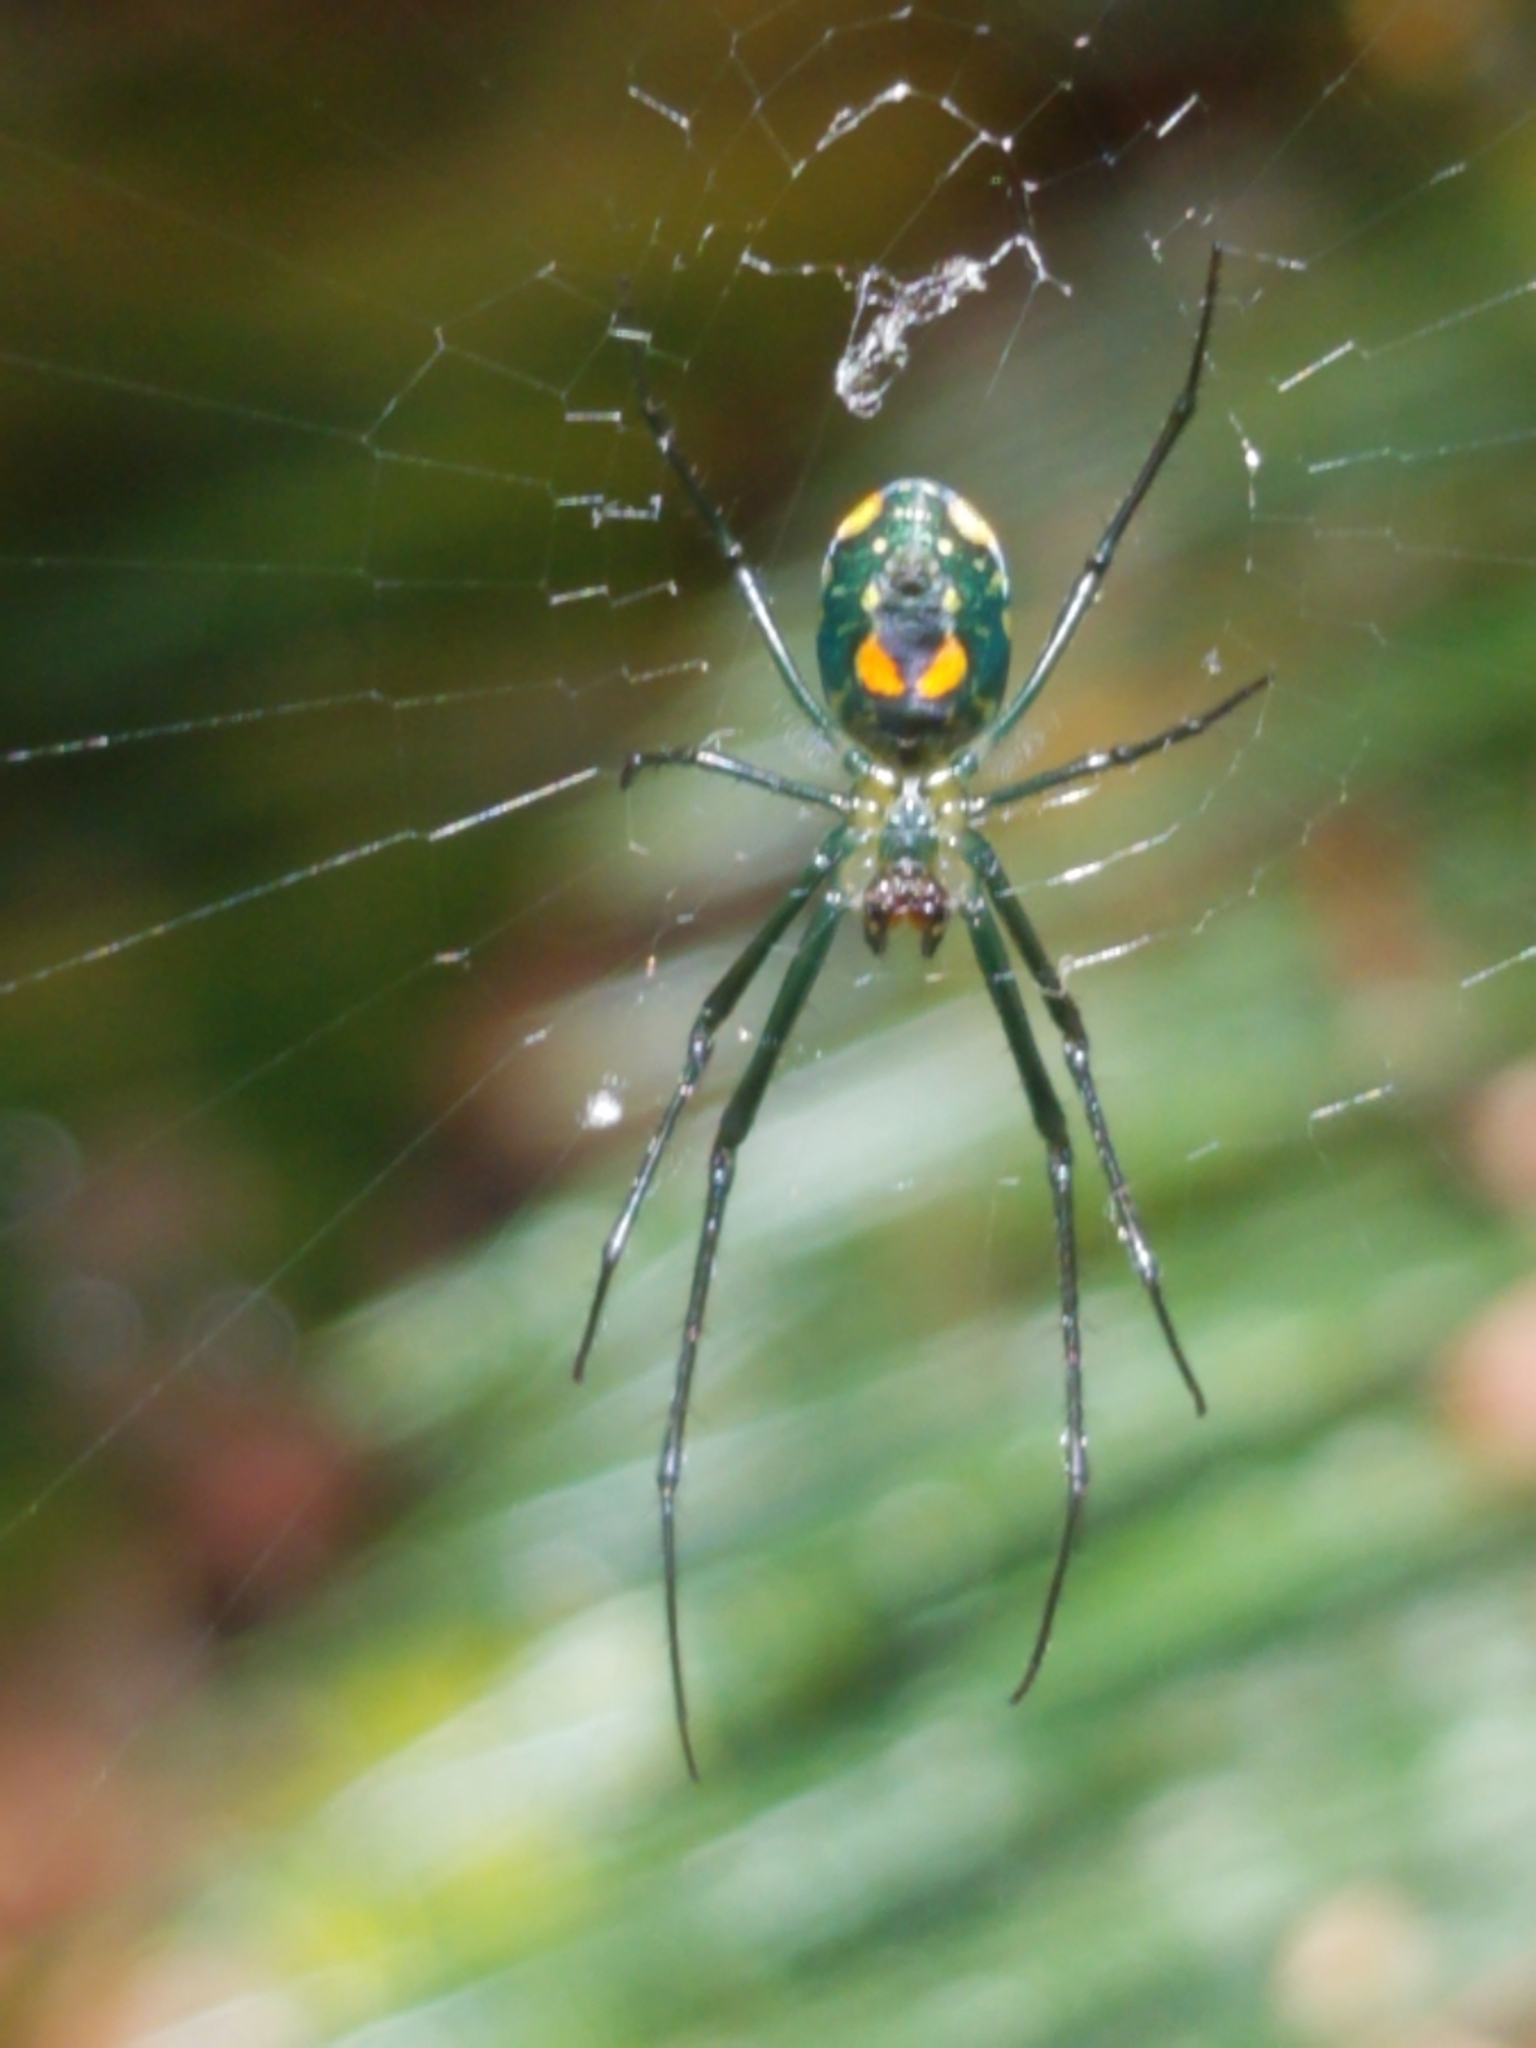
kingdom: Animalia
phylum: Arthropoda
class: Arachnida
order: Araneae
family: Tetragnathidae
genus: Leucauge
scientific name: Leucauge argyrobapta
